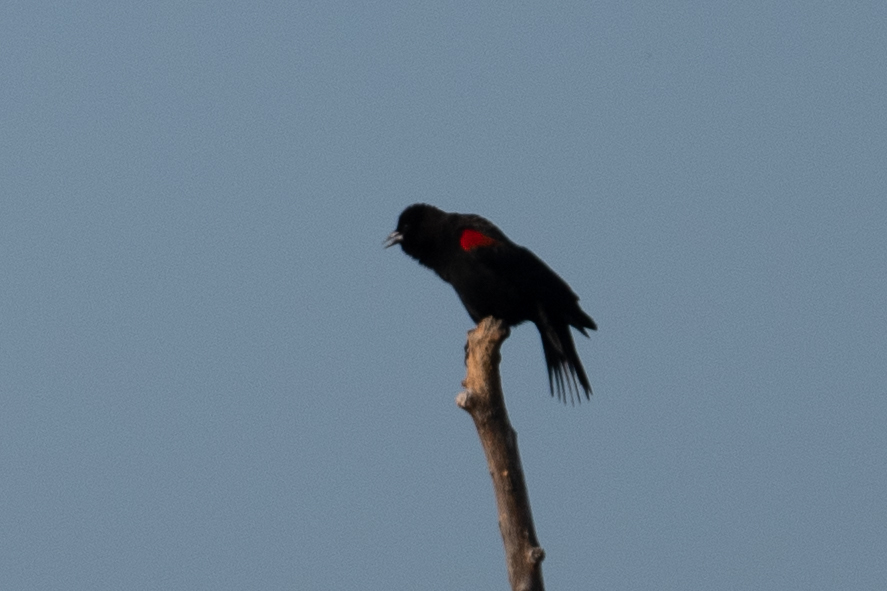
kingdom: Animalia
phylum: Chordata
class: Aves
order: Passeriformes
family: Icteridae
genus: Agelaius
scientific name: Agelaius phoeniceus
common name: Red-winged blackbird
